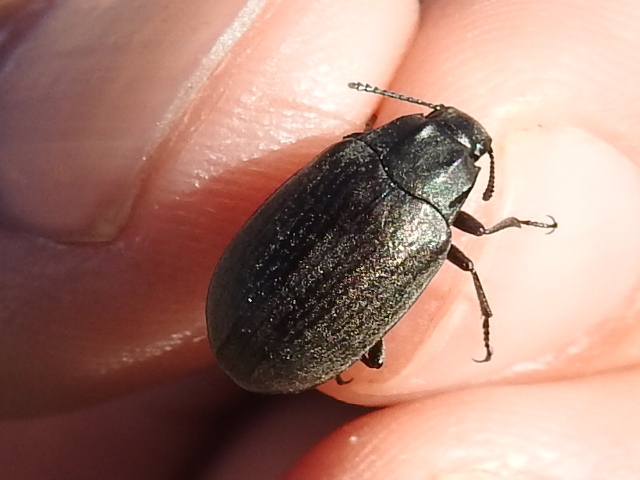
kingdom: Animalia
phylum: Arthropoda
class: Insecta
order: Coleoptera
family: Tenebrionidae
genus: Bothrotes
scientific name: Bothrotes canaliculatus
